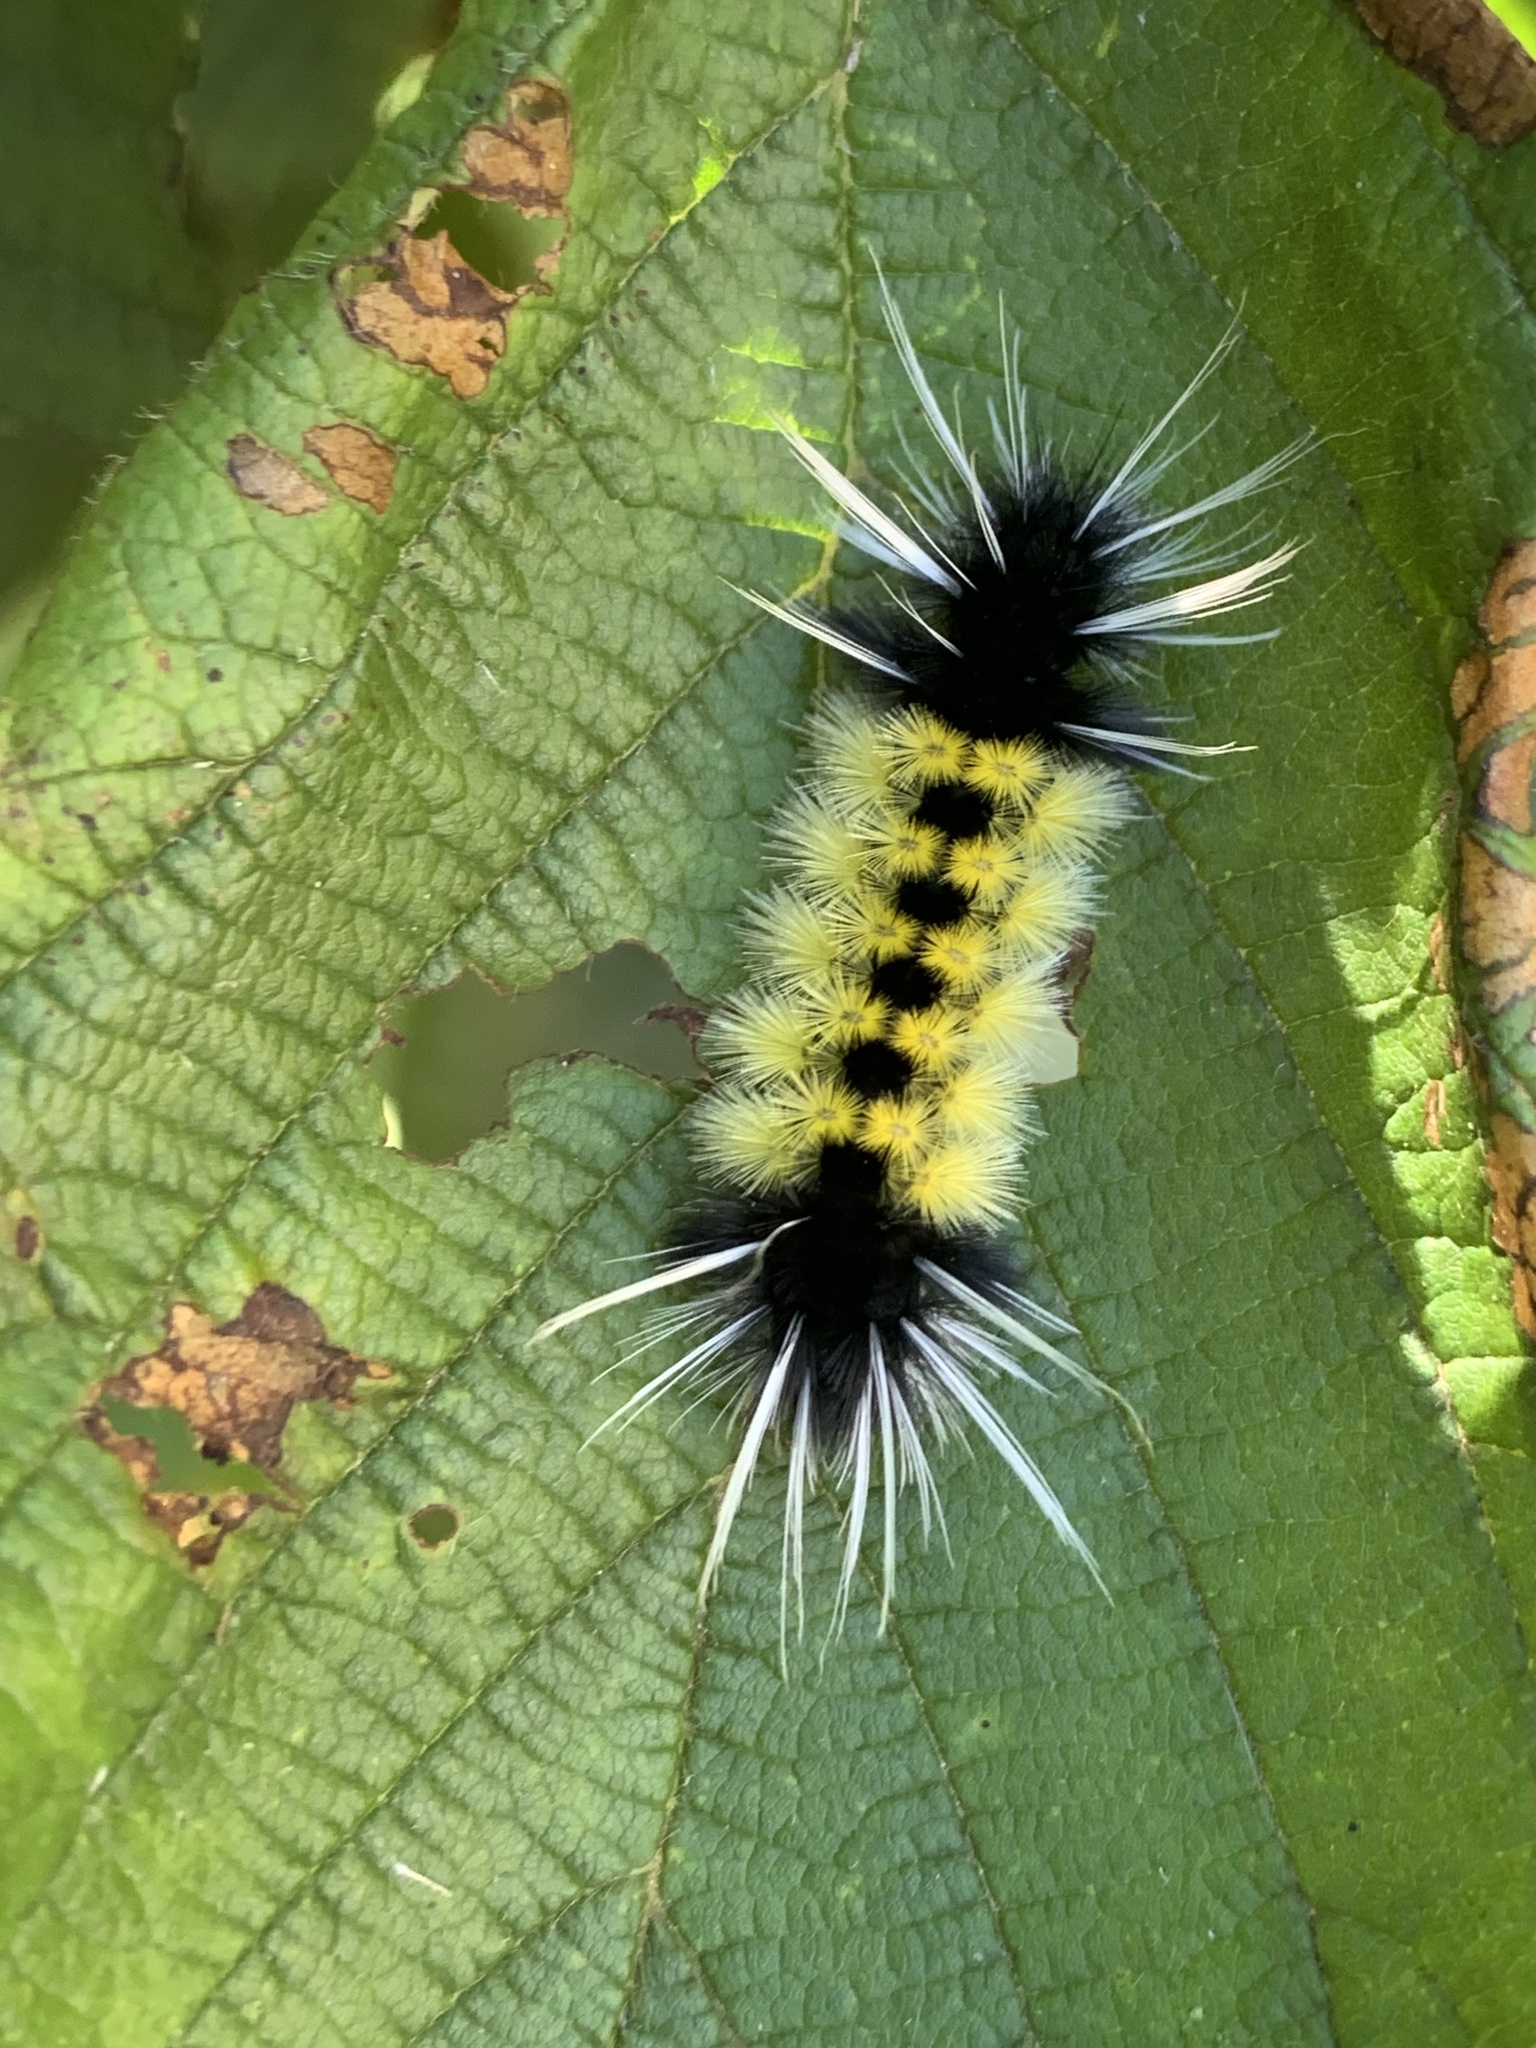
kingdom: Animalia
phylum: Arthropoda
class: Insecta
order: Lepidoptera
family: Erebidae
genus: Lophocampa
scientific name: Lophocampa maculata
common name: Spotted tussock moth
